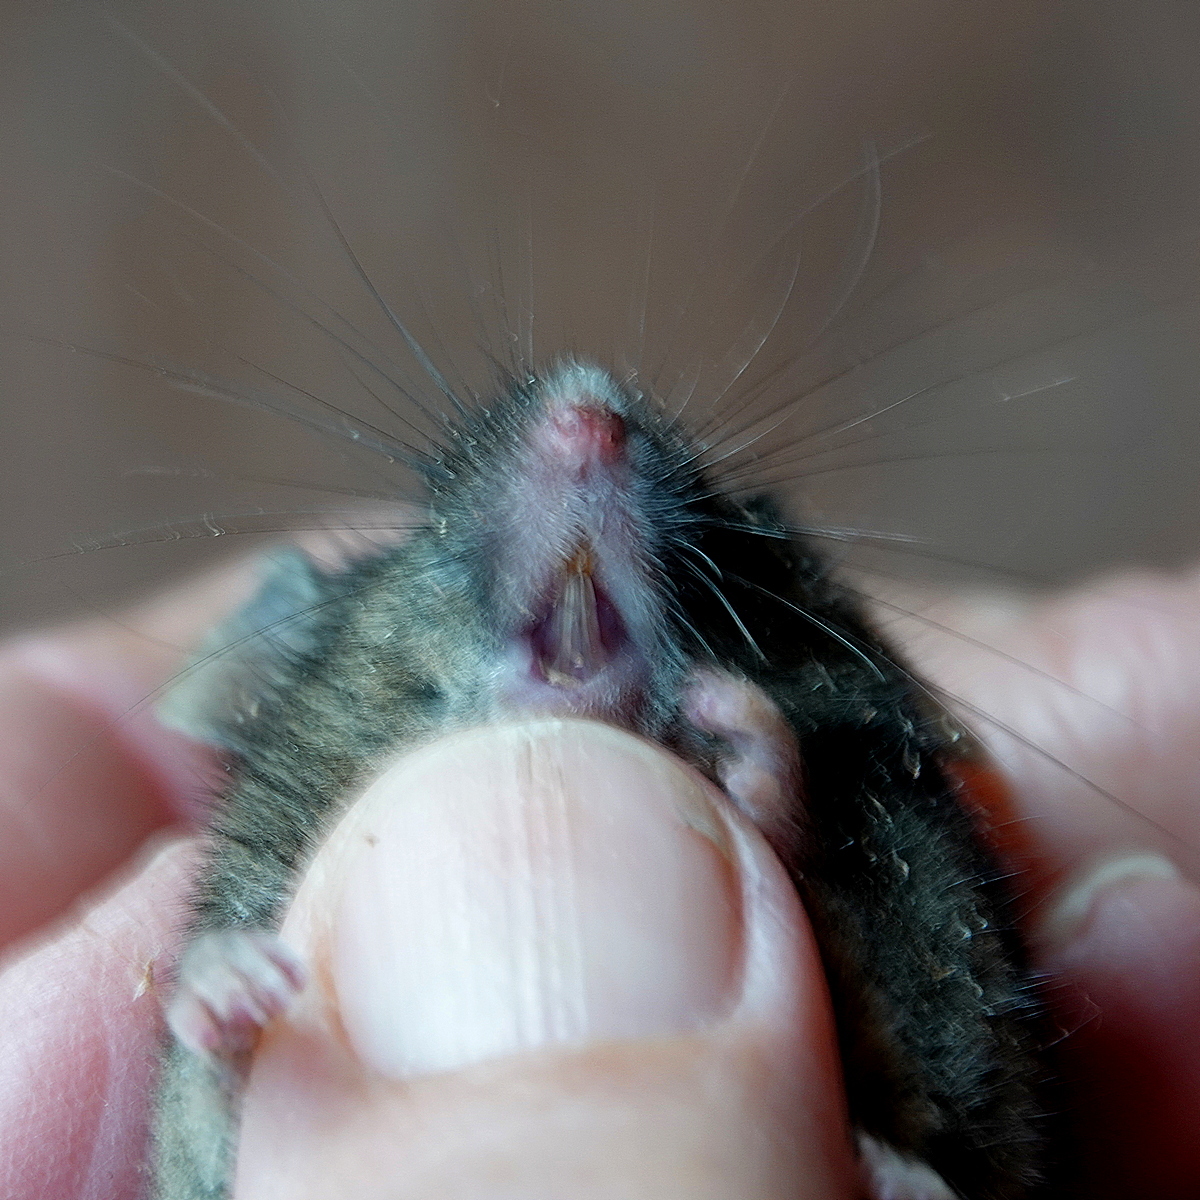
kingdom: Animalia
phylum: Chordata
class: Mammalia
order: Rodentia
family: Muridae
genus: Mus
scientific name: Mus musculus
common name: House mouse
